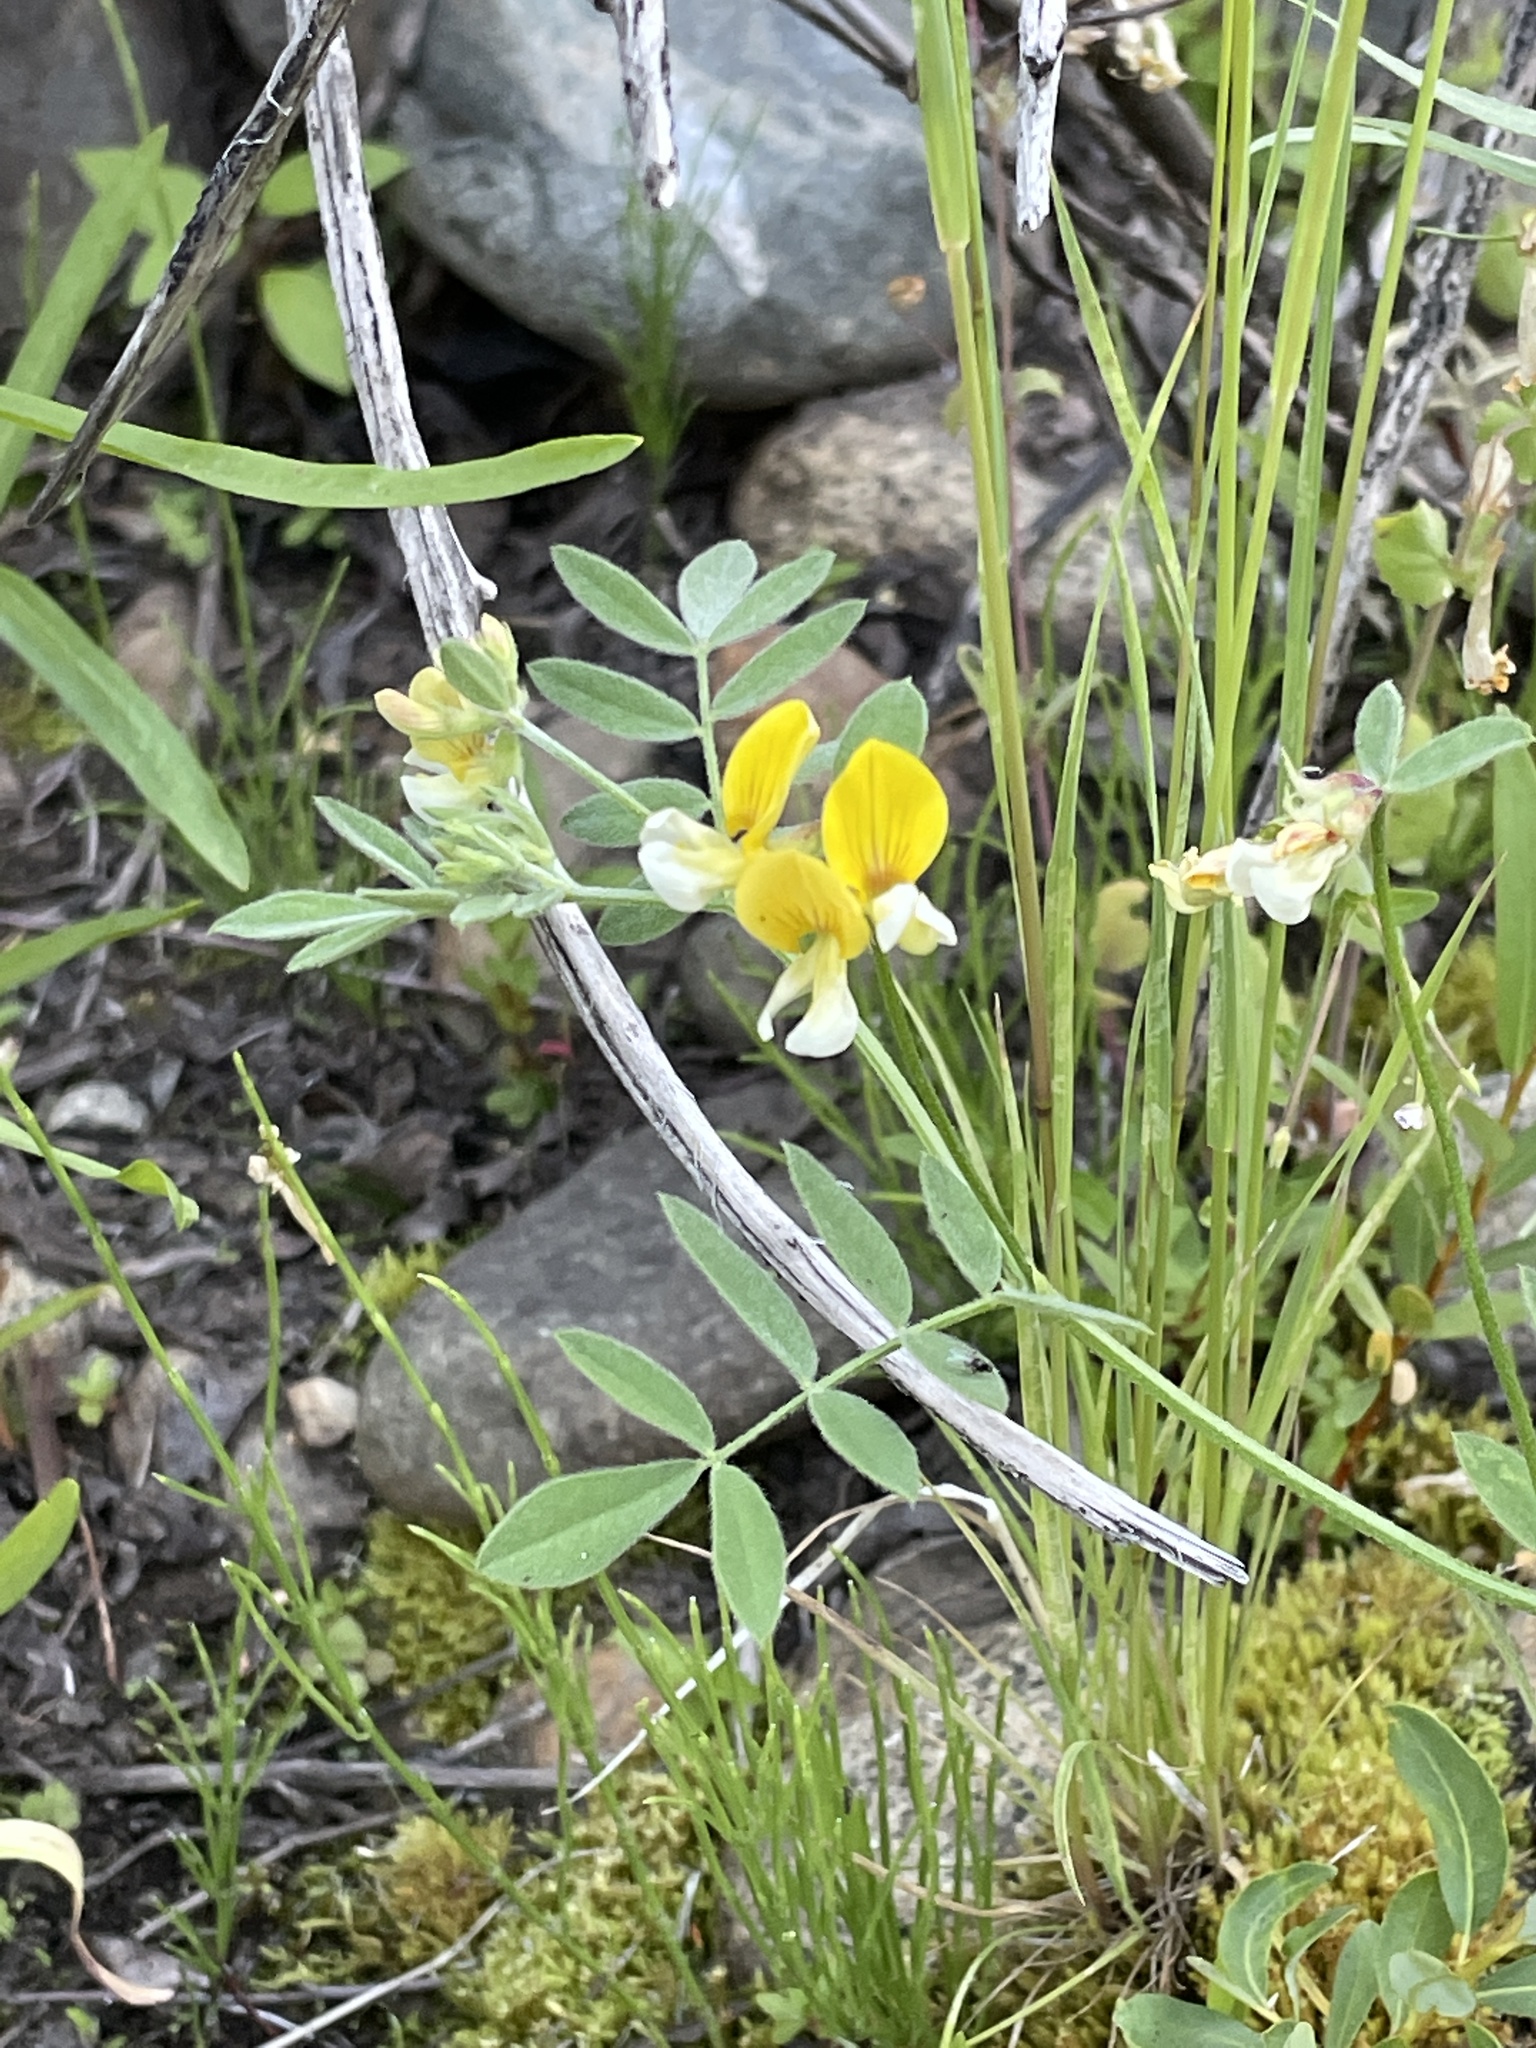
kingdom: Plantae
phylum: Tracheophyta
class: Magnoliopsida
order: Fabales
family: Fabaceae
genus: Hosackia
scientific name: Hosackia oblongifolia
